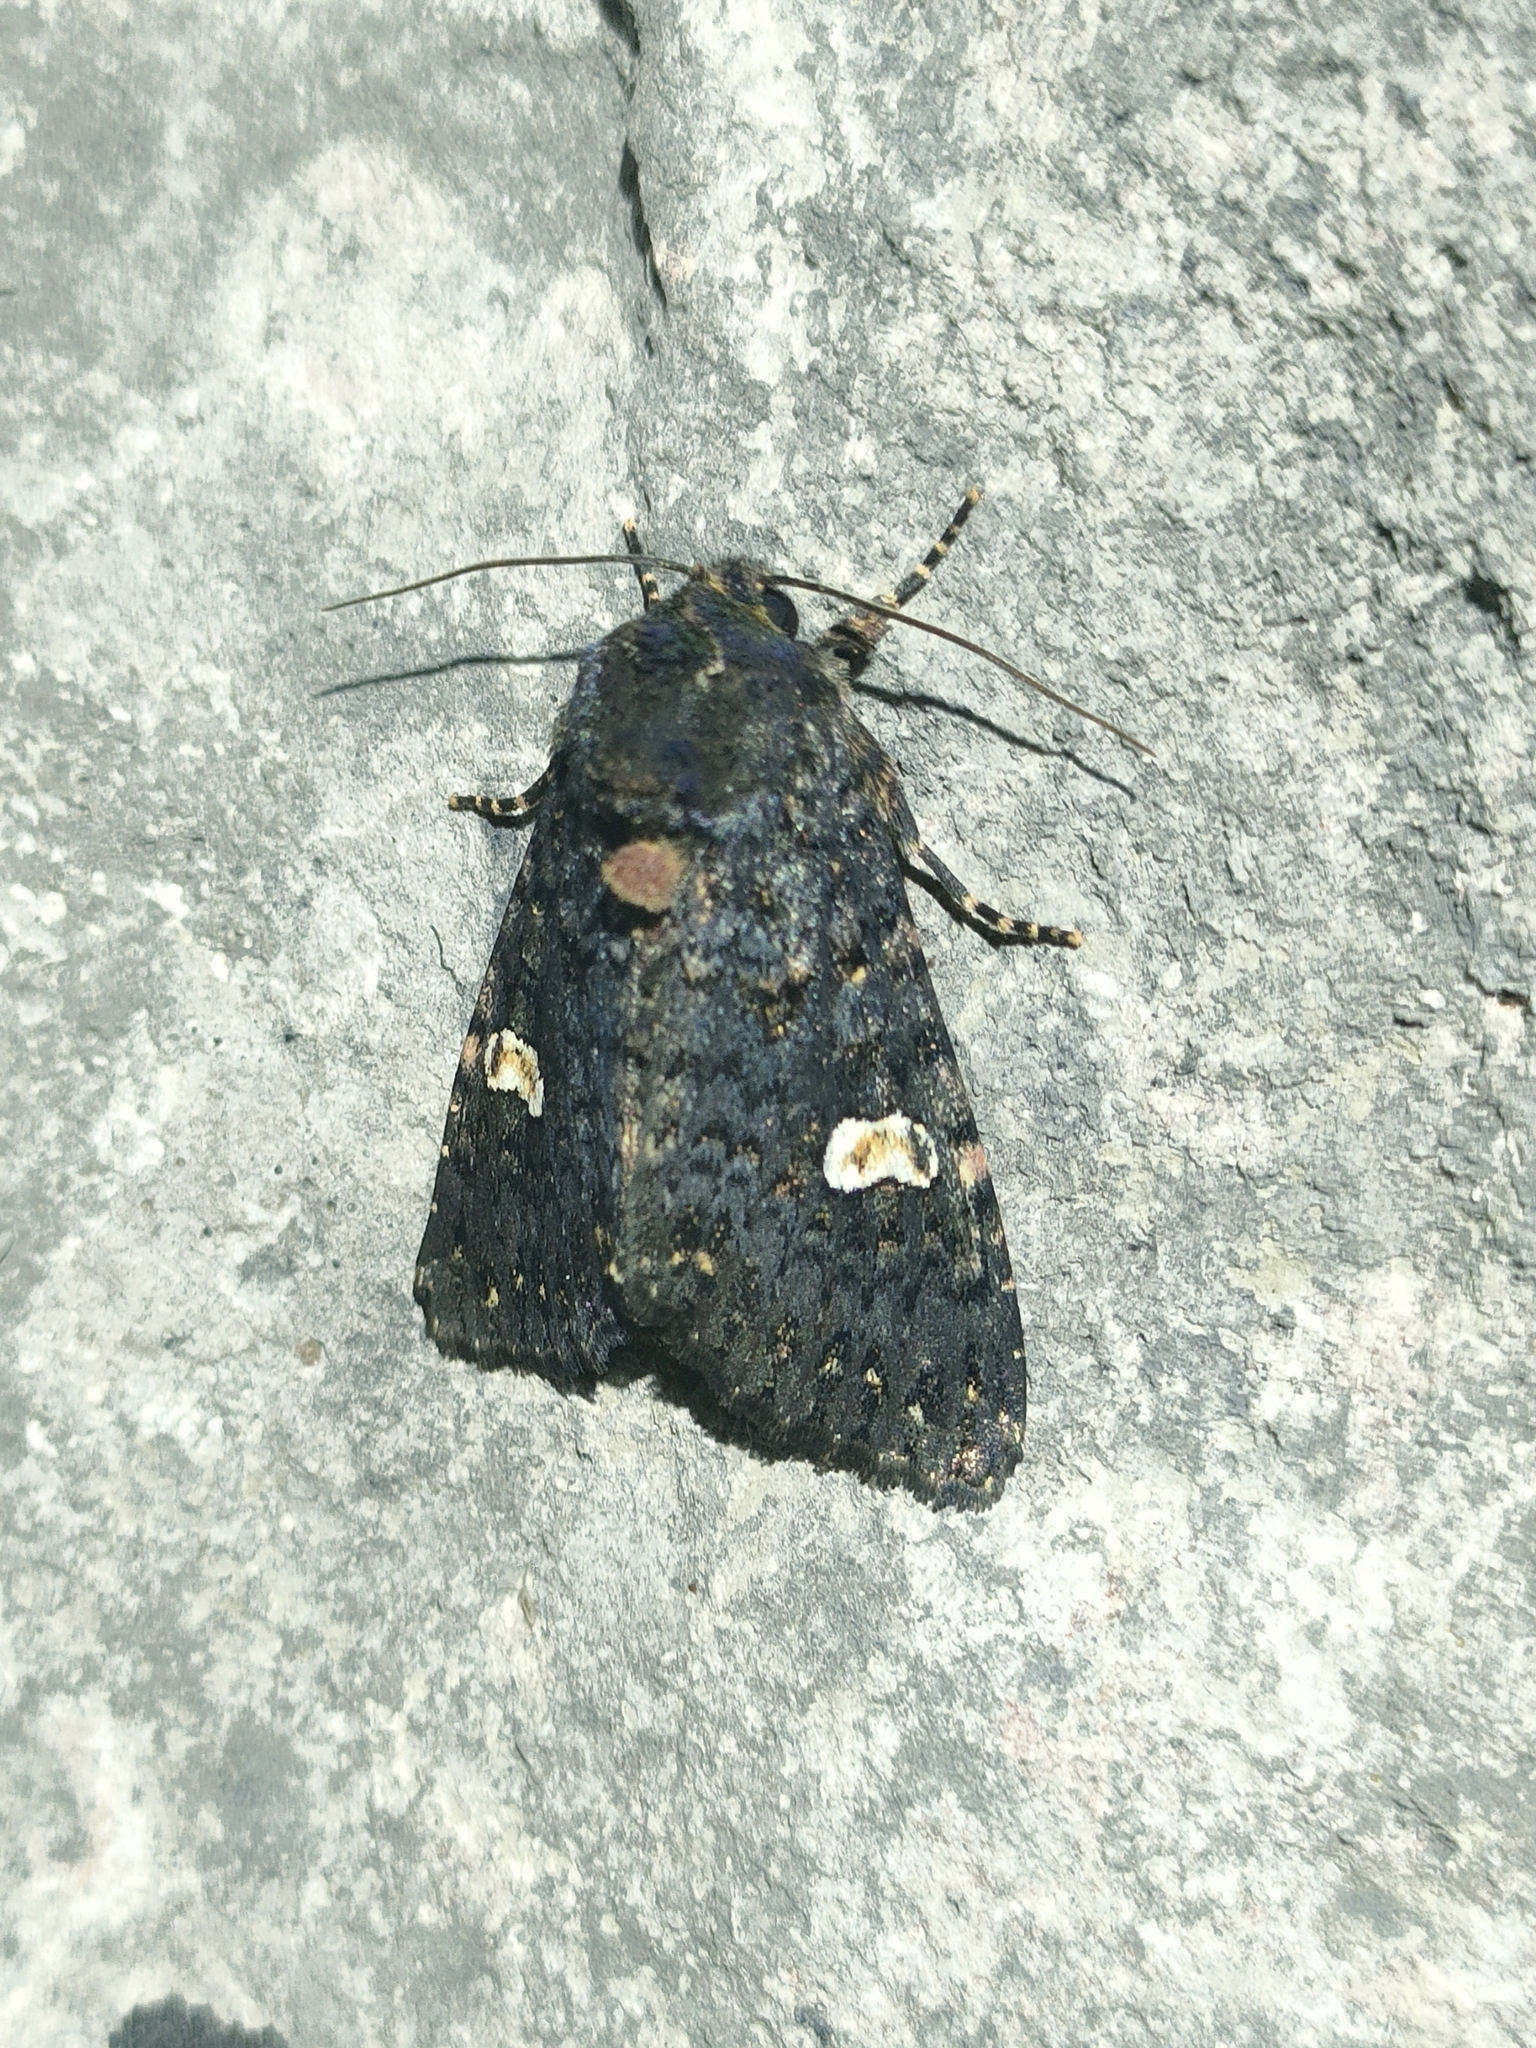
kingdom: Animalia
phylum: Arthropoda
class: Insecta
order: Lepidoptera
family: Noctuidae
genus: Melanchra
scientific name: Melanchra persicariae
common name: Dot moth
